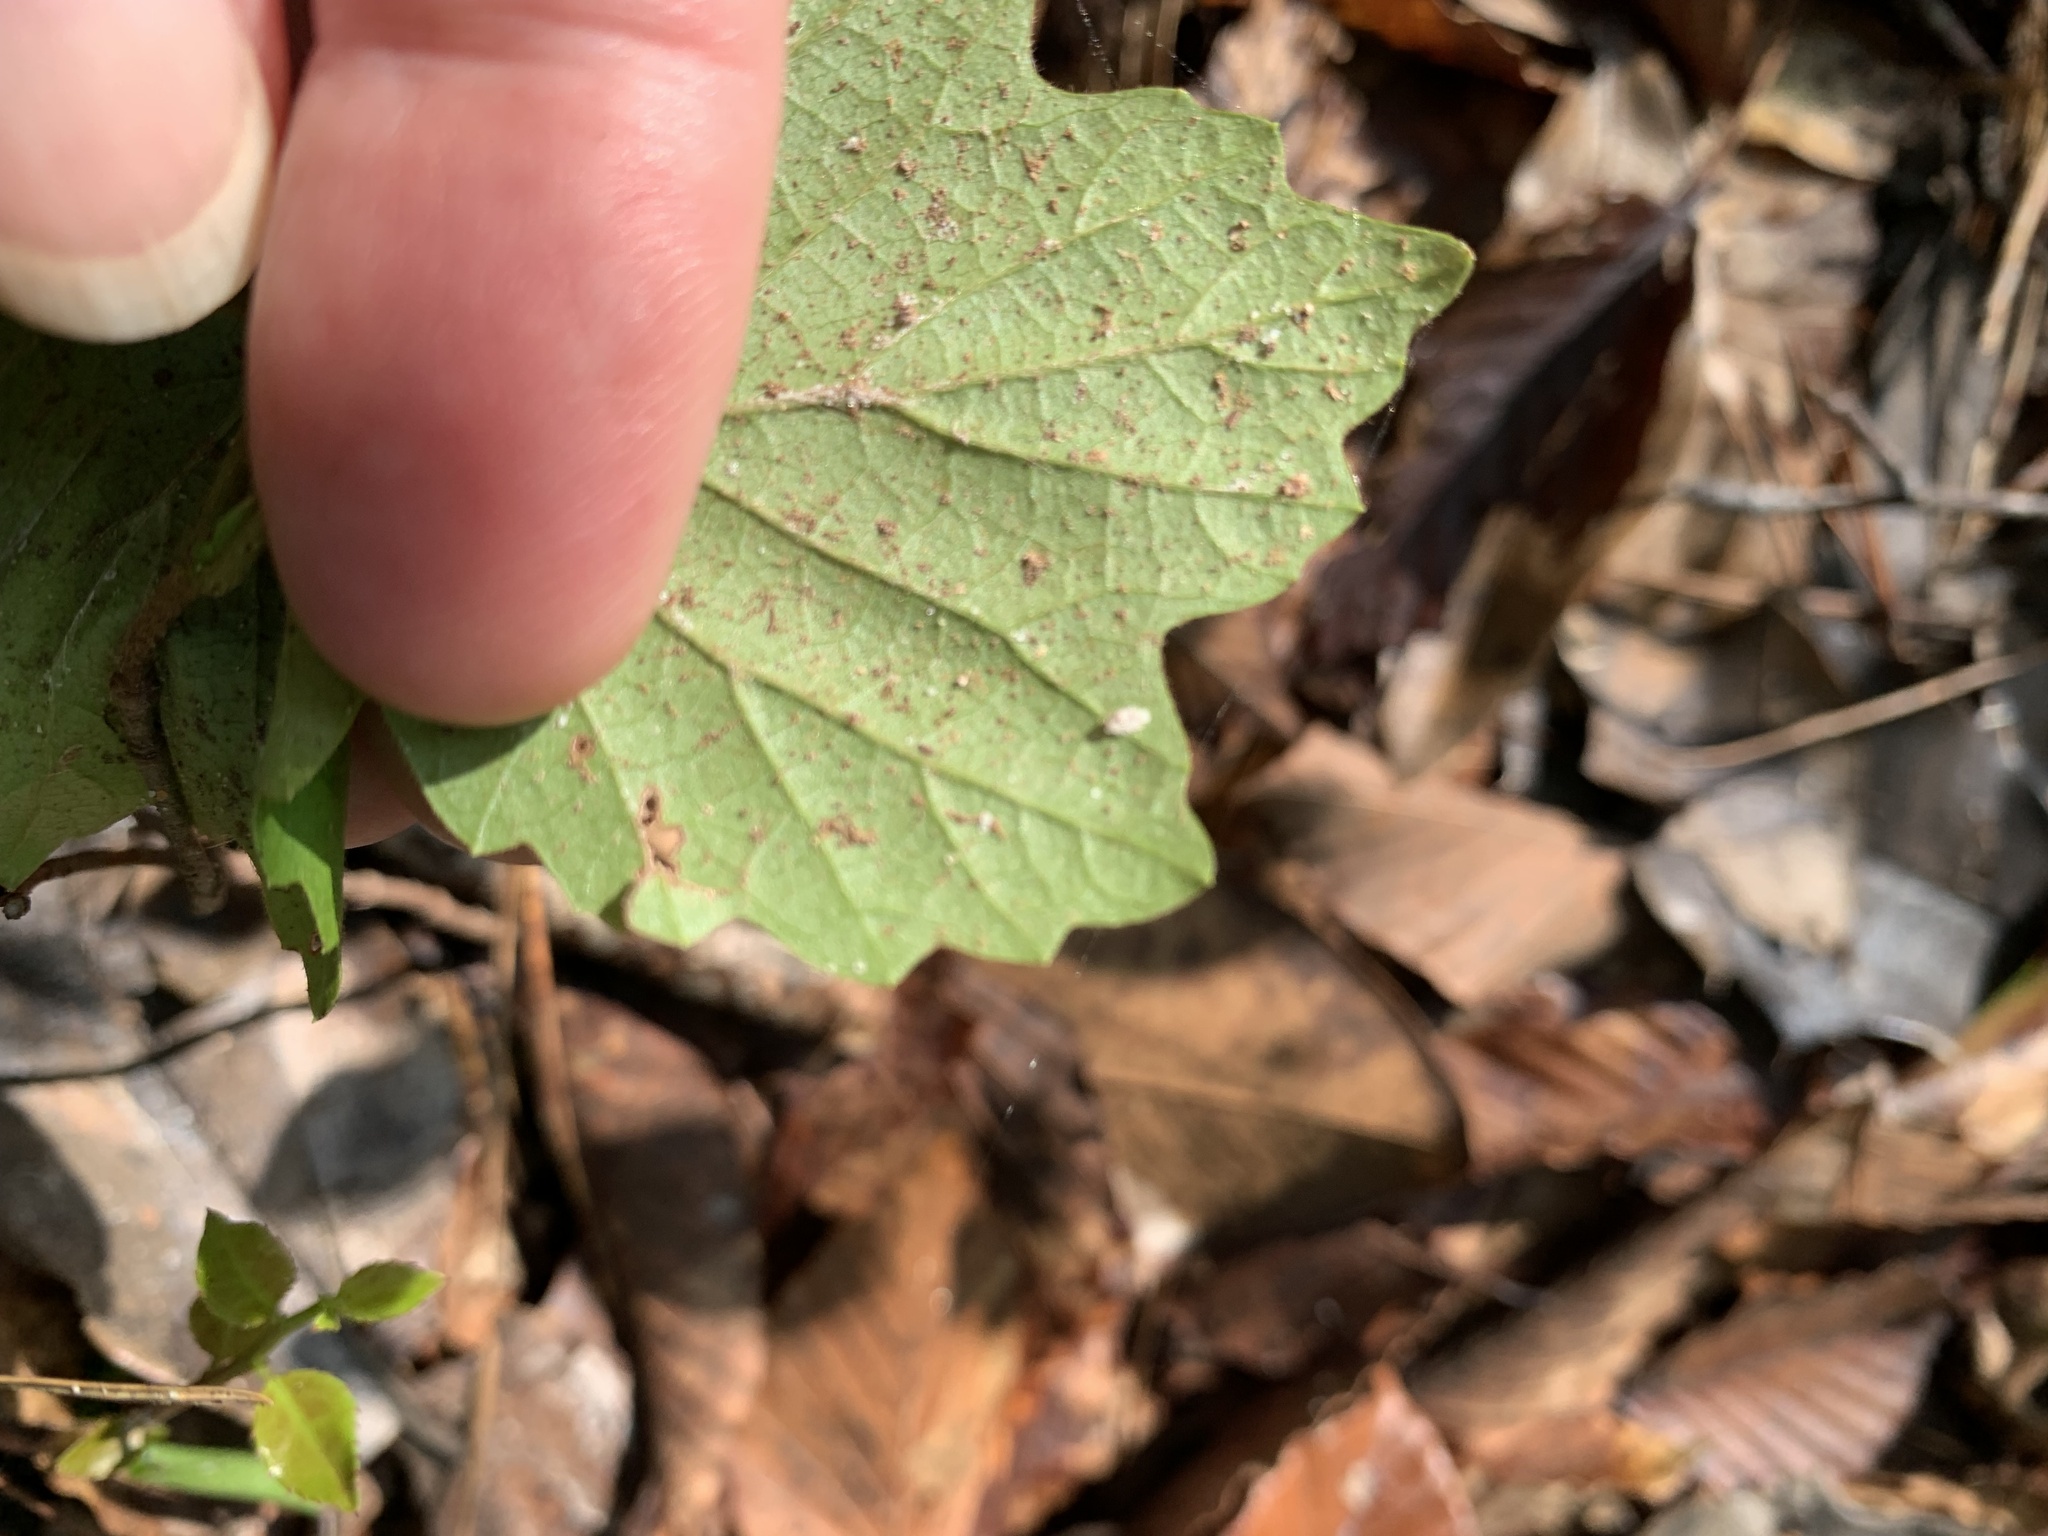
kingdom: Plantae
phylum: Tracheophyta
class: Magnoliopsida
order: Dipsacales
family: Viburnaceae
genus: Viburnum
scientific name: Viburnum acerifolium
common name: Dockmackie
